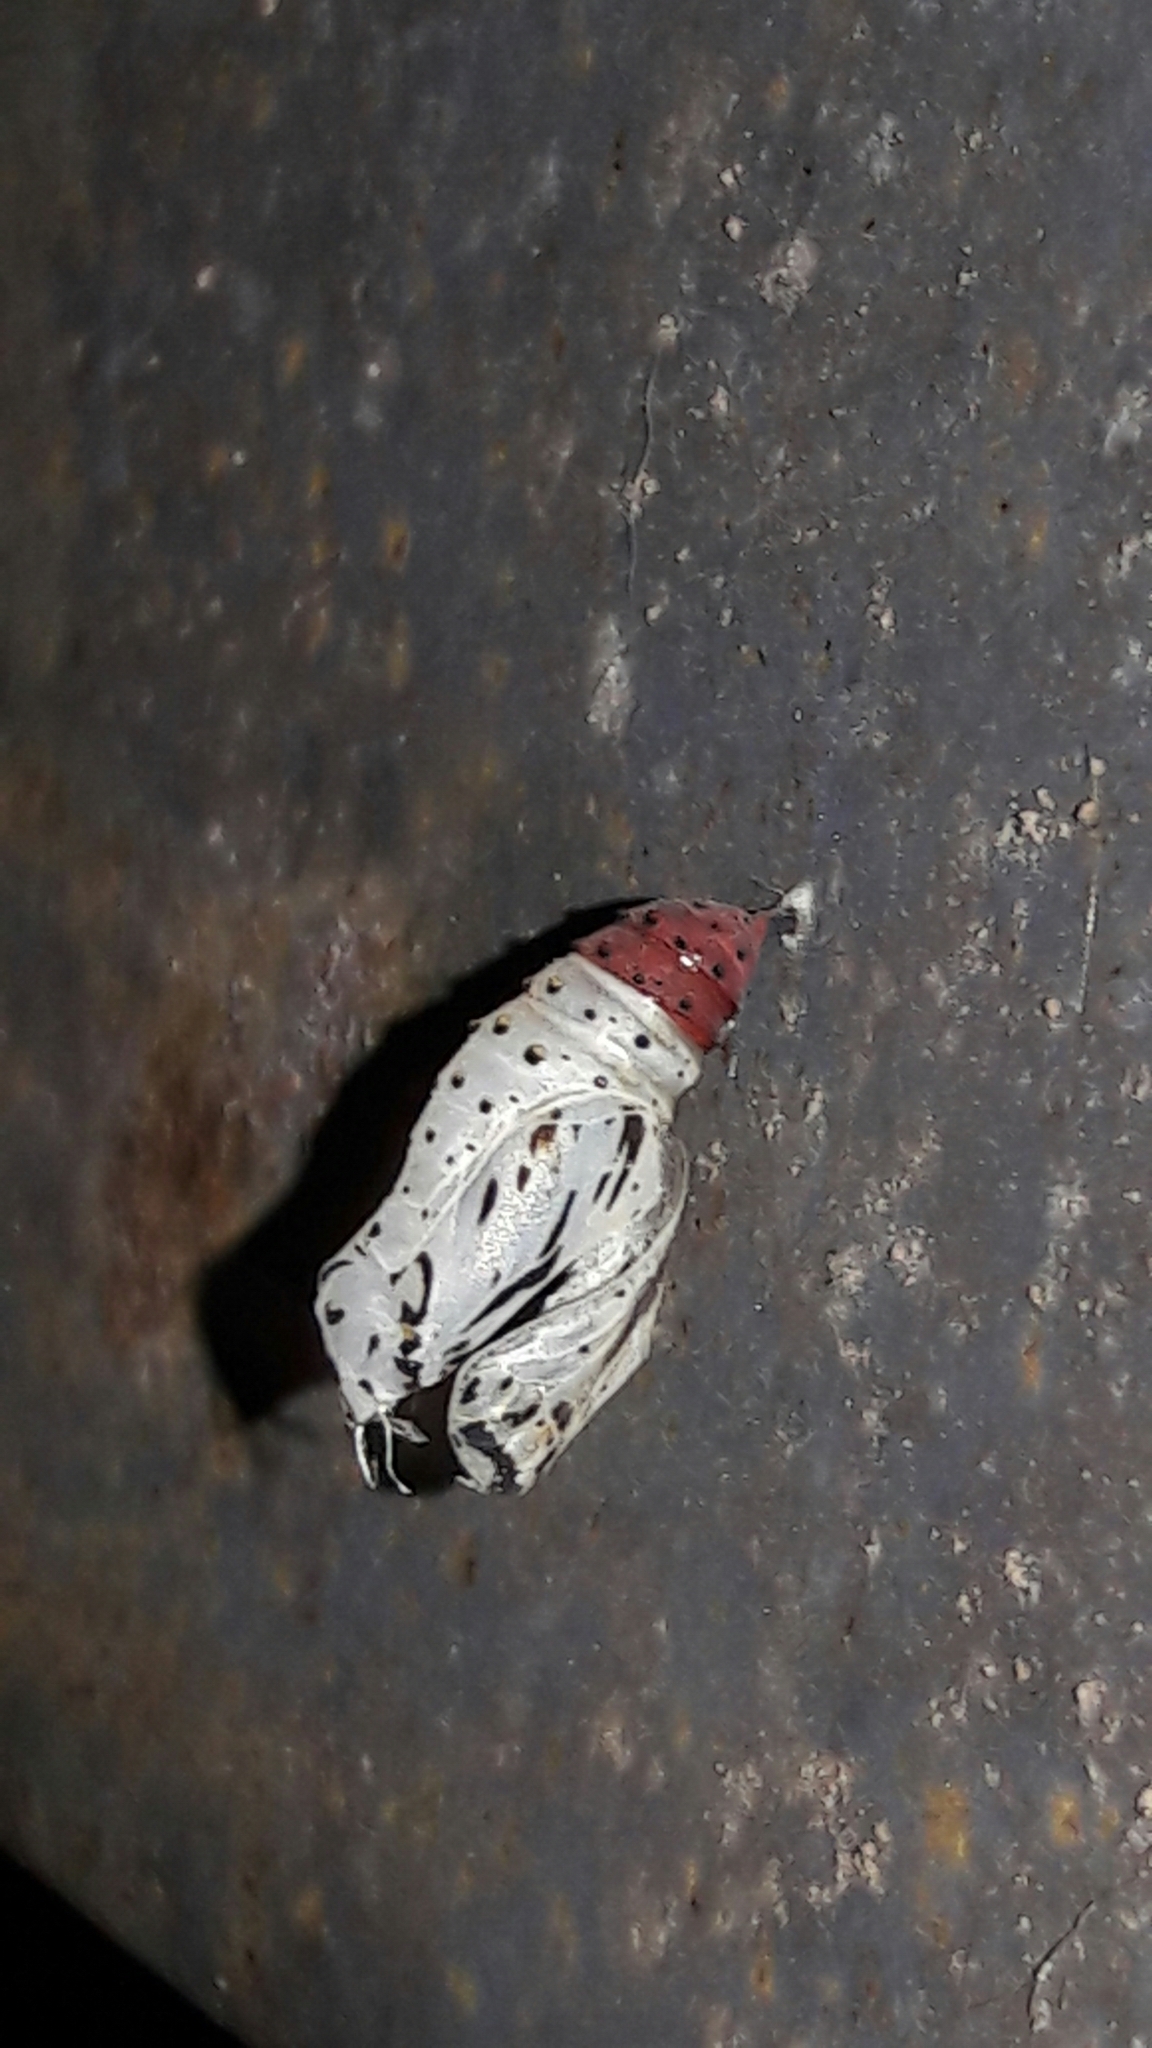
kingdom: Animalia
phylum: Arthropoda
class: Insecta
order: Lepidoptera
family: Nymphalidae
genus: Chlosyne
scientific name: Chlosyne lacinia
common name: Bordered patch
